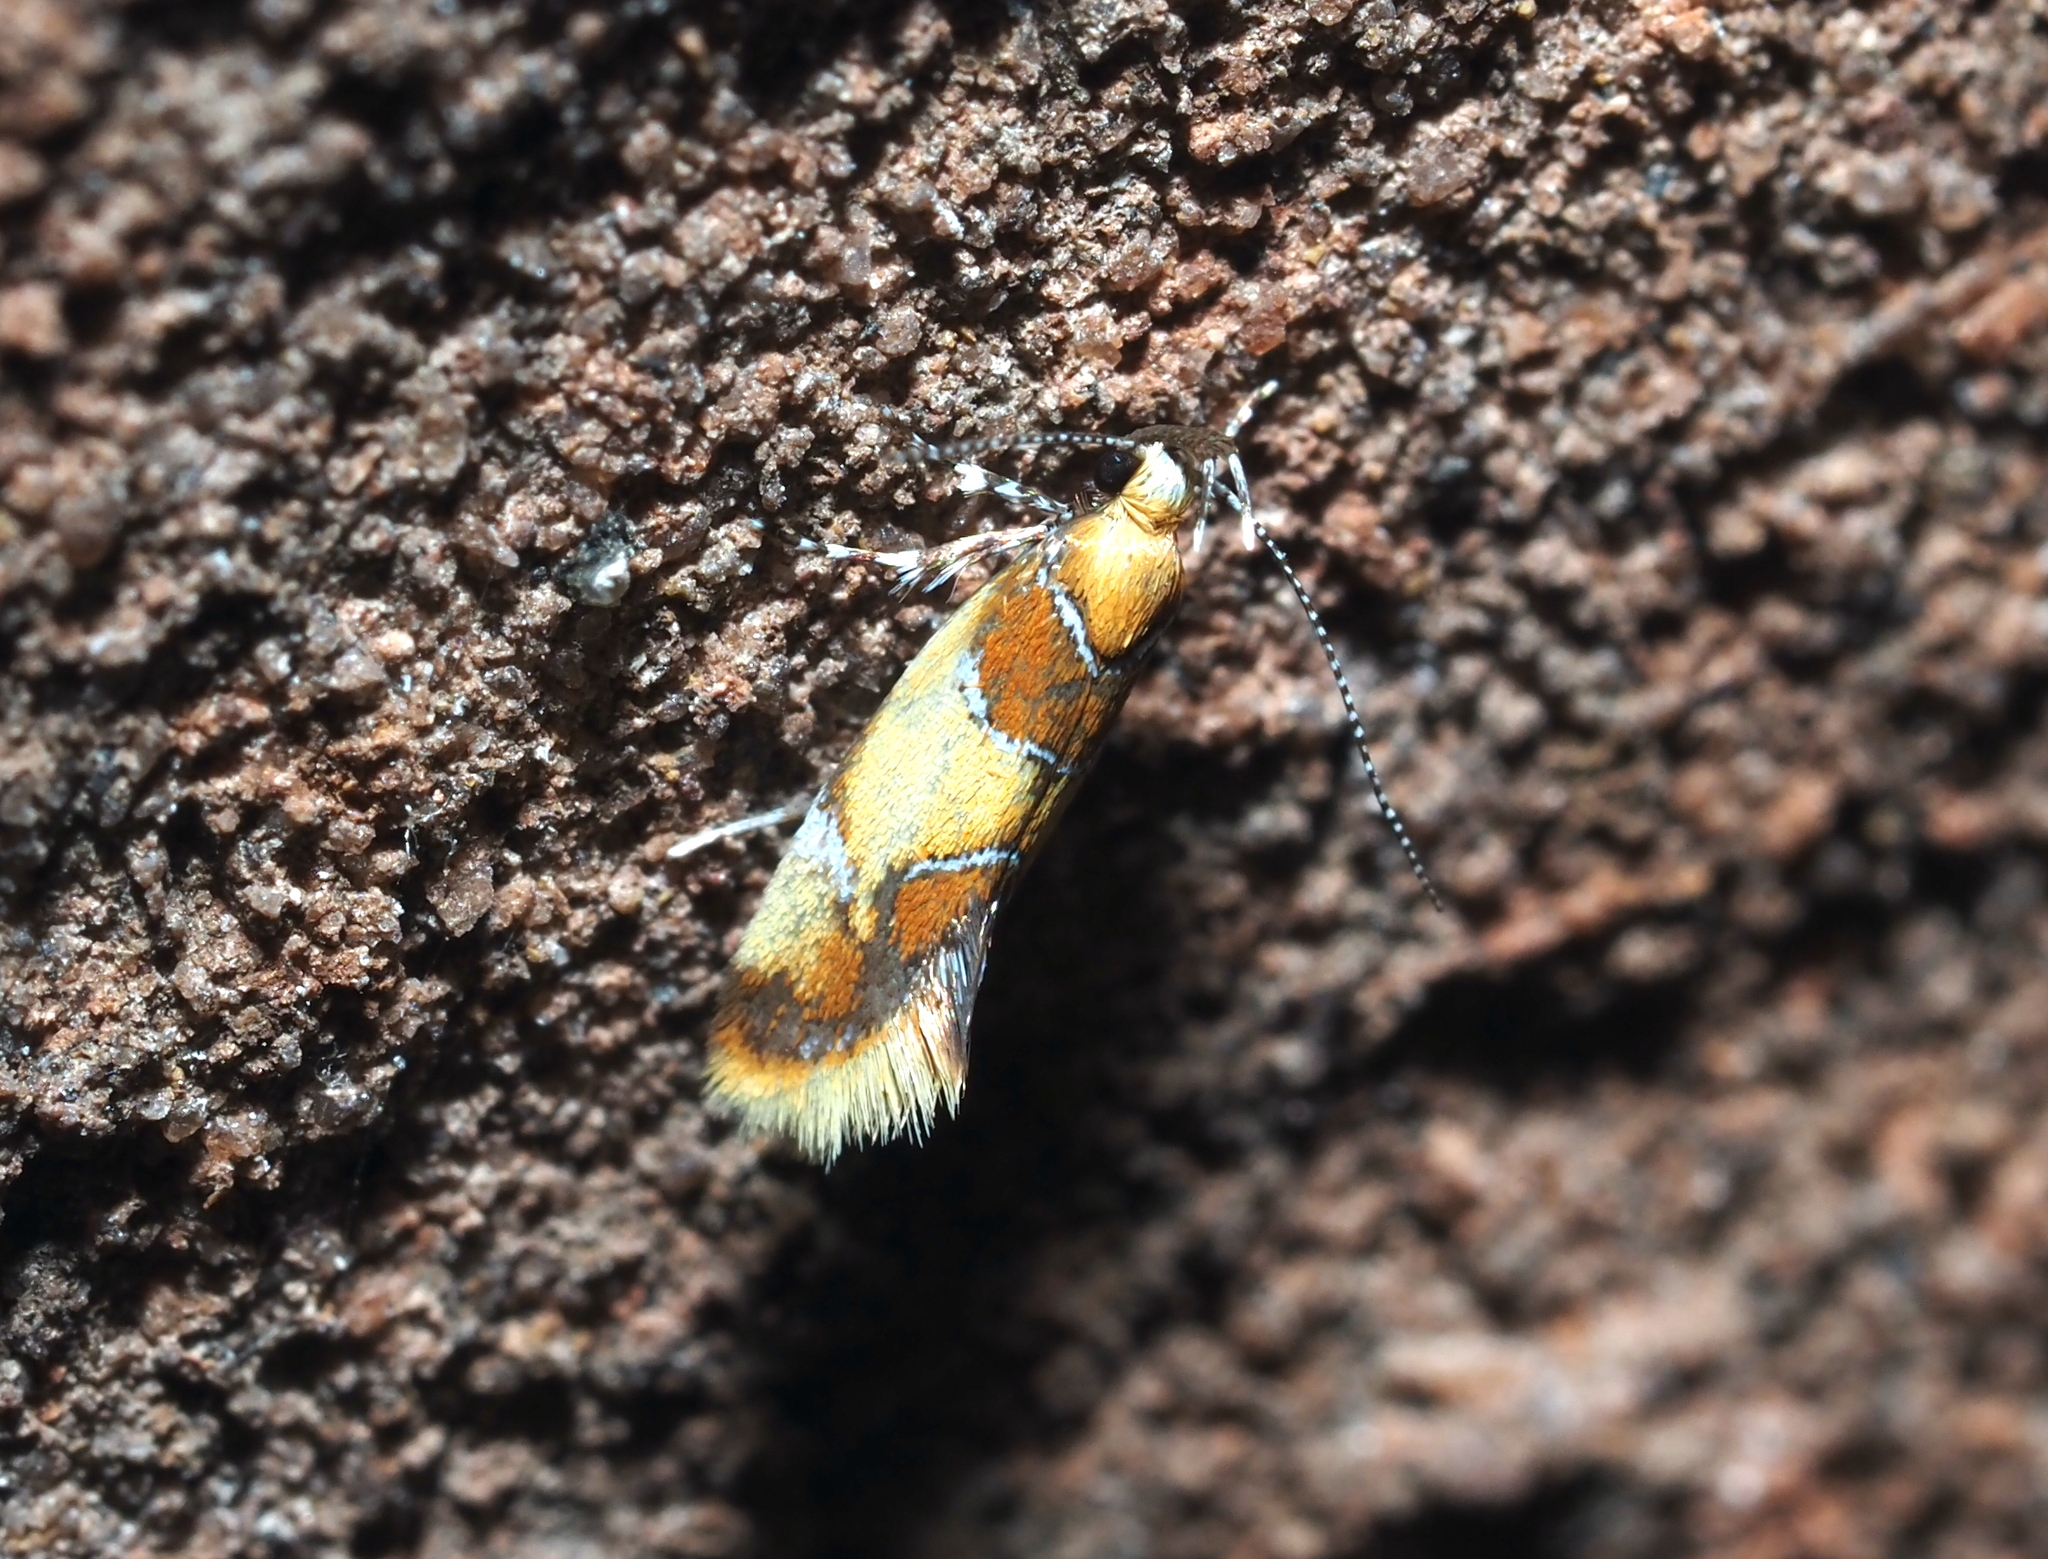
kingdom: Animalia
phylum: Arthropoda
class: Insecta
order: Lepidoptera
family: Oecophoridae
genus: Callima
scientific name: Callima argenticinctella
